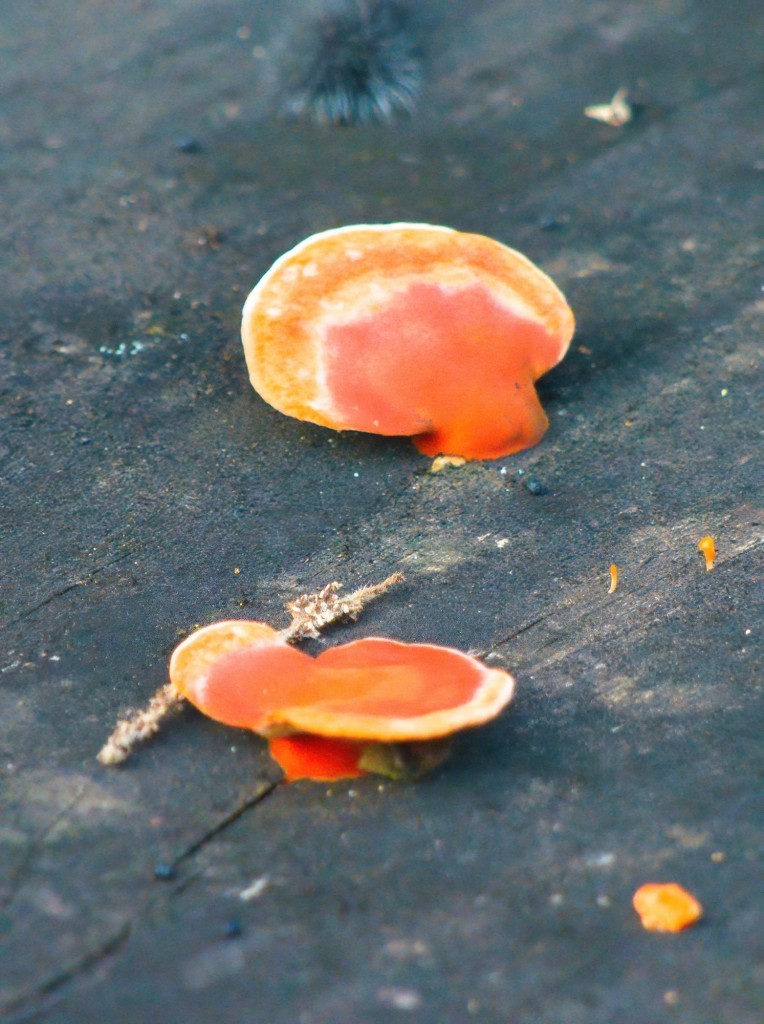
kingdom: Fungi
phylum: Basidiomycota
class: Agaricomycetes
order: Polyporales
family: Polyporaceae
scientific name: Polyporaceae
